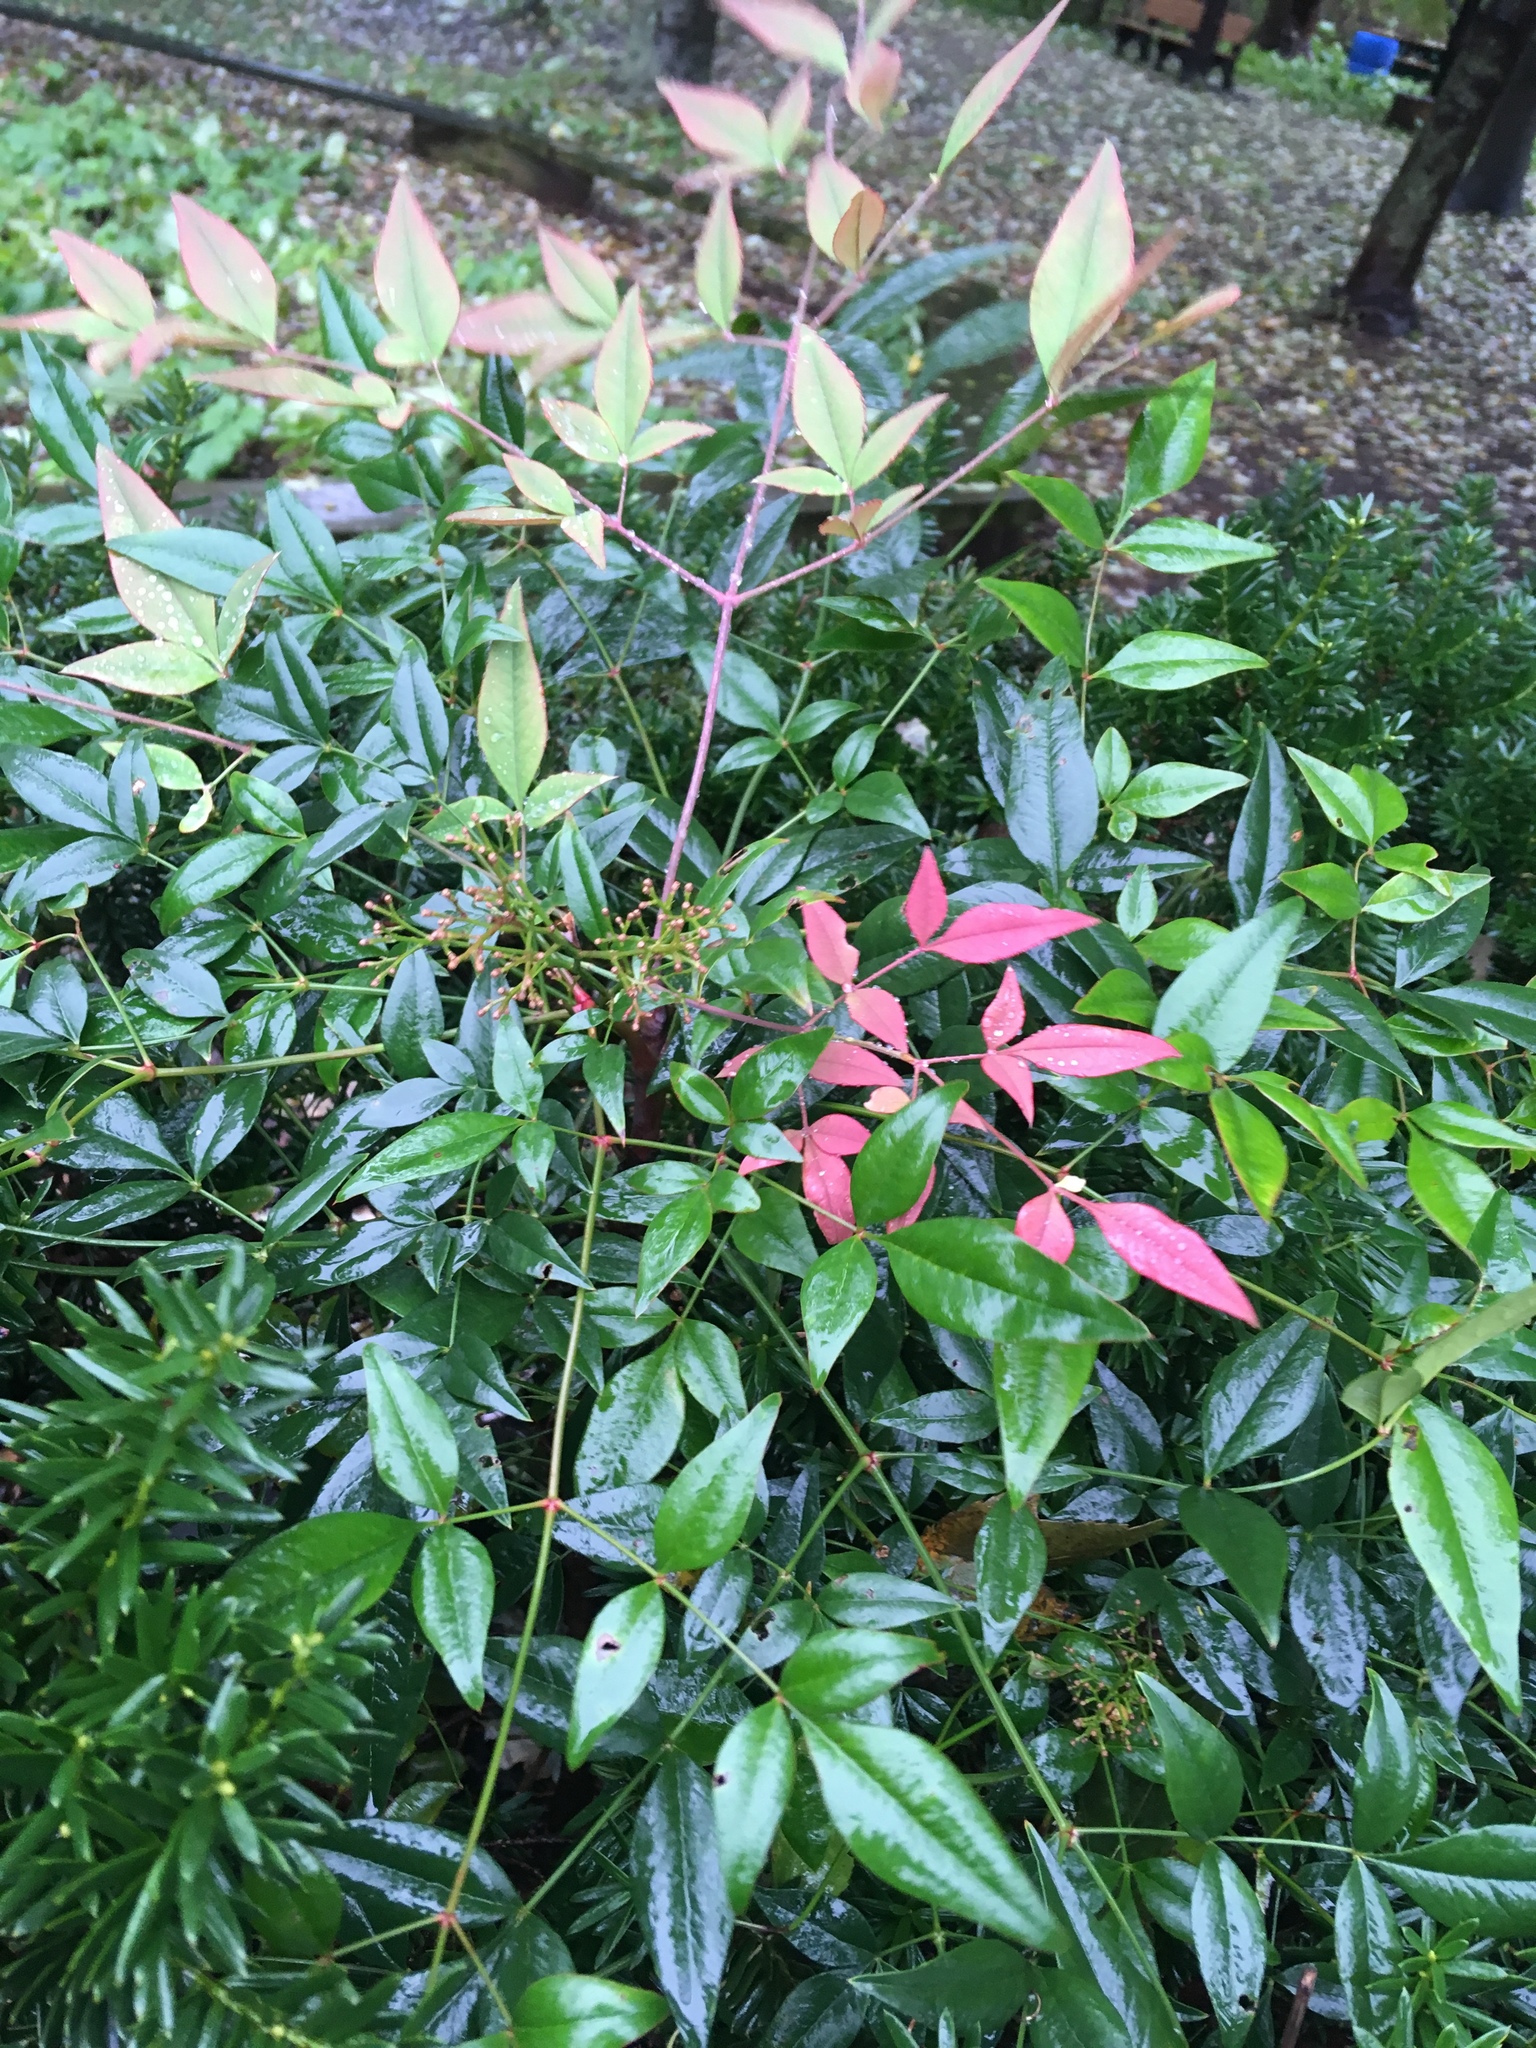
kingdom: Plantae
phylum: Tracheophyta
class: Magnoliopsida
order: Ranunculales
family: Berberidaceae
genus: Nandina
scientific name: Nandina domestica
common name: Sacred bamboo
